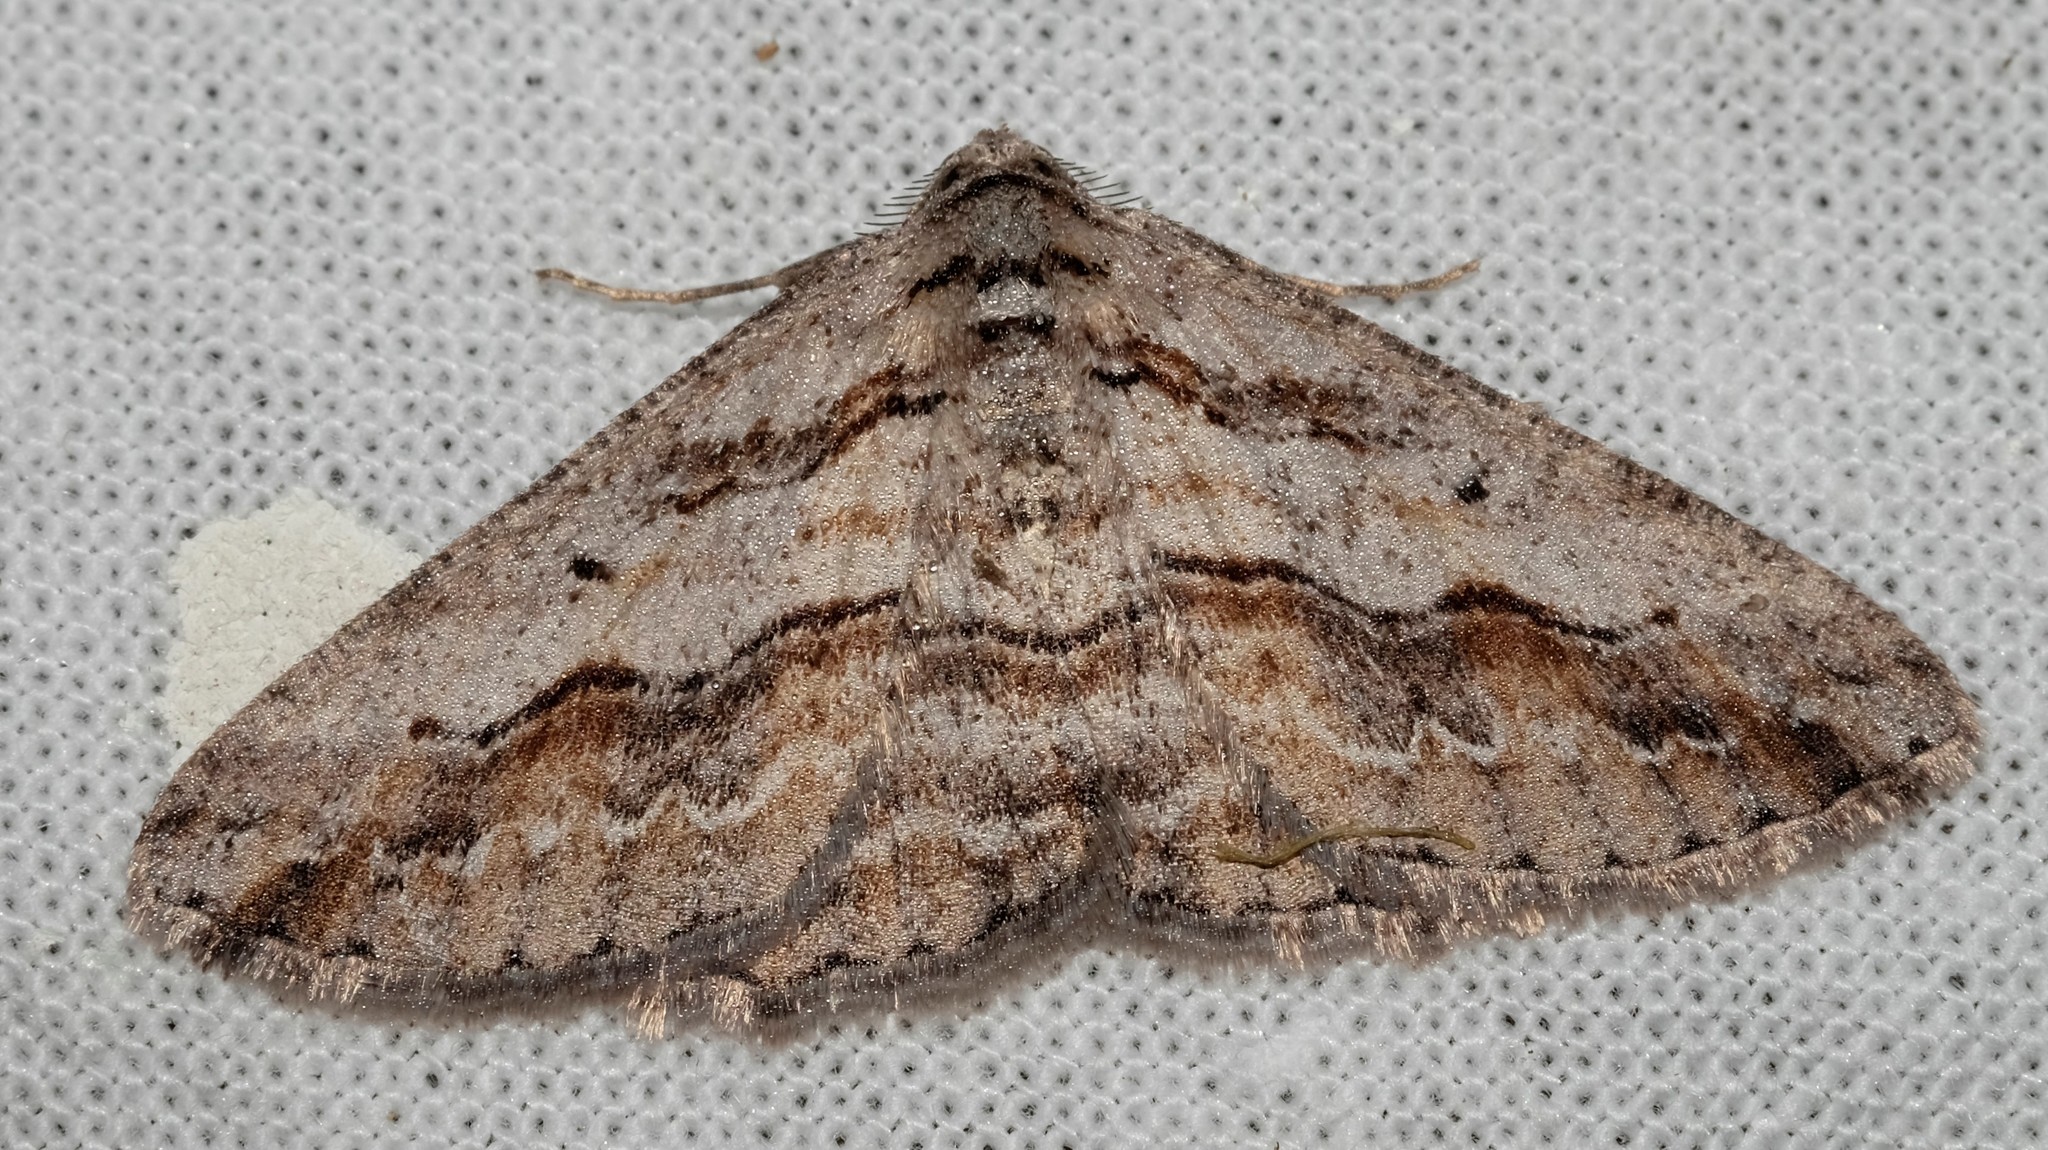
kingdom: Animalia
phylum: Arthropoda
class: Insecta
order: Lepidoptera
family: Geometridae
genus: Syneora
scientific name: Syneora mundifera
